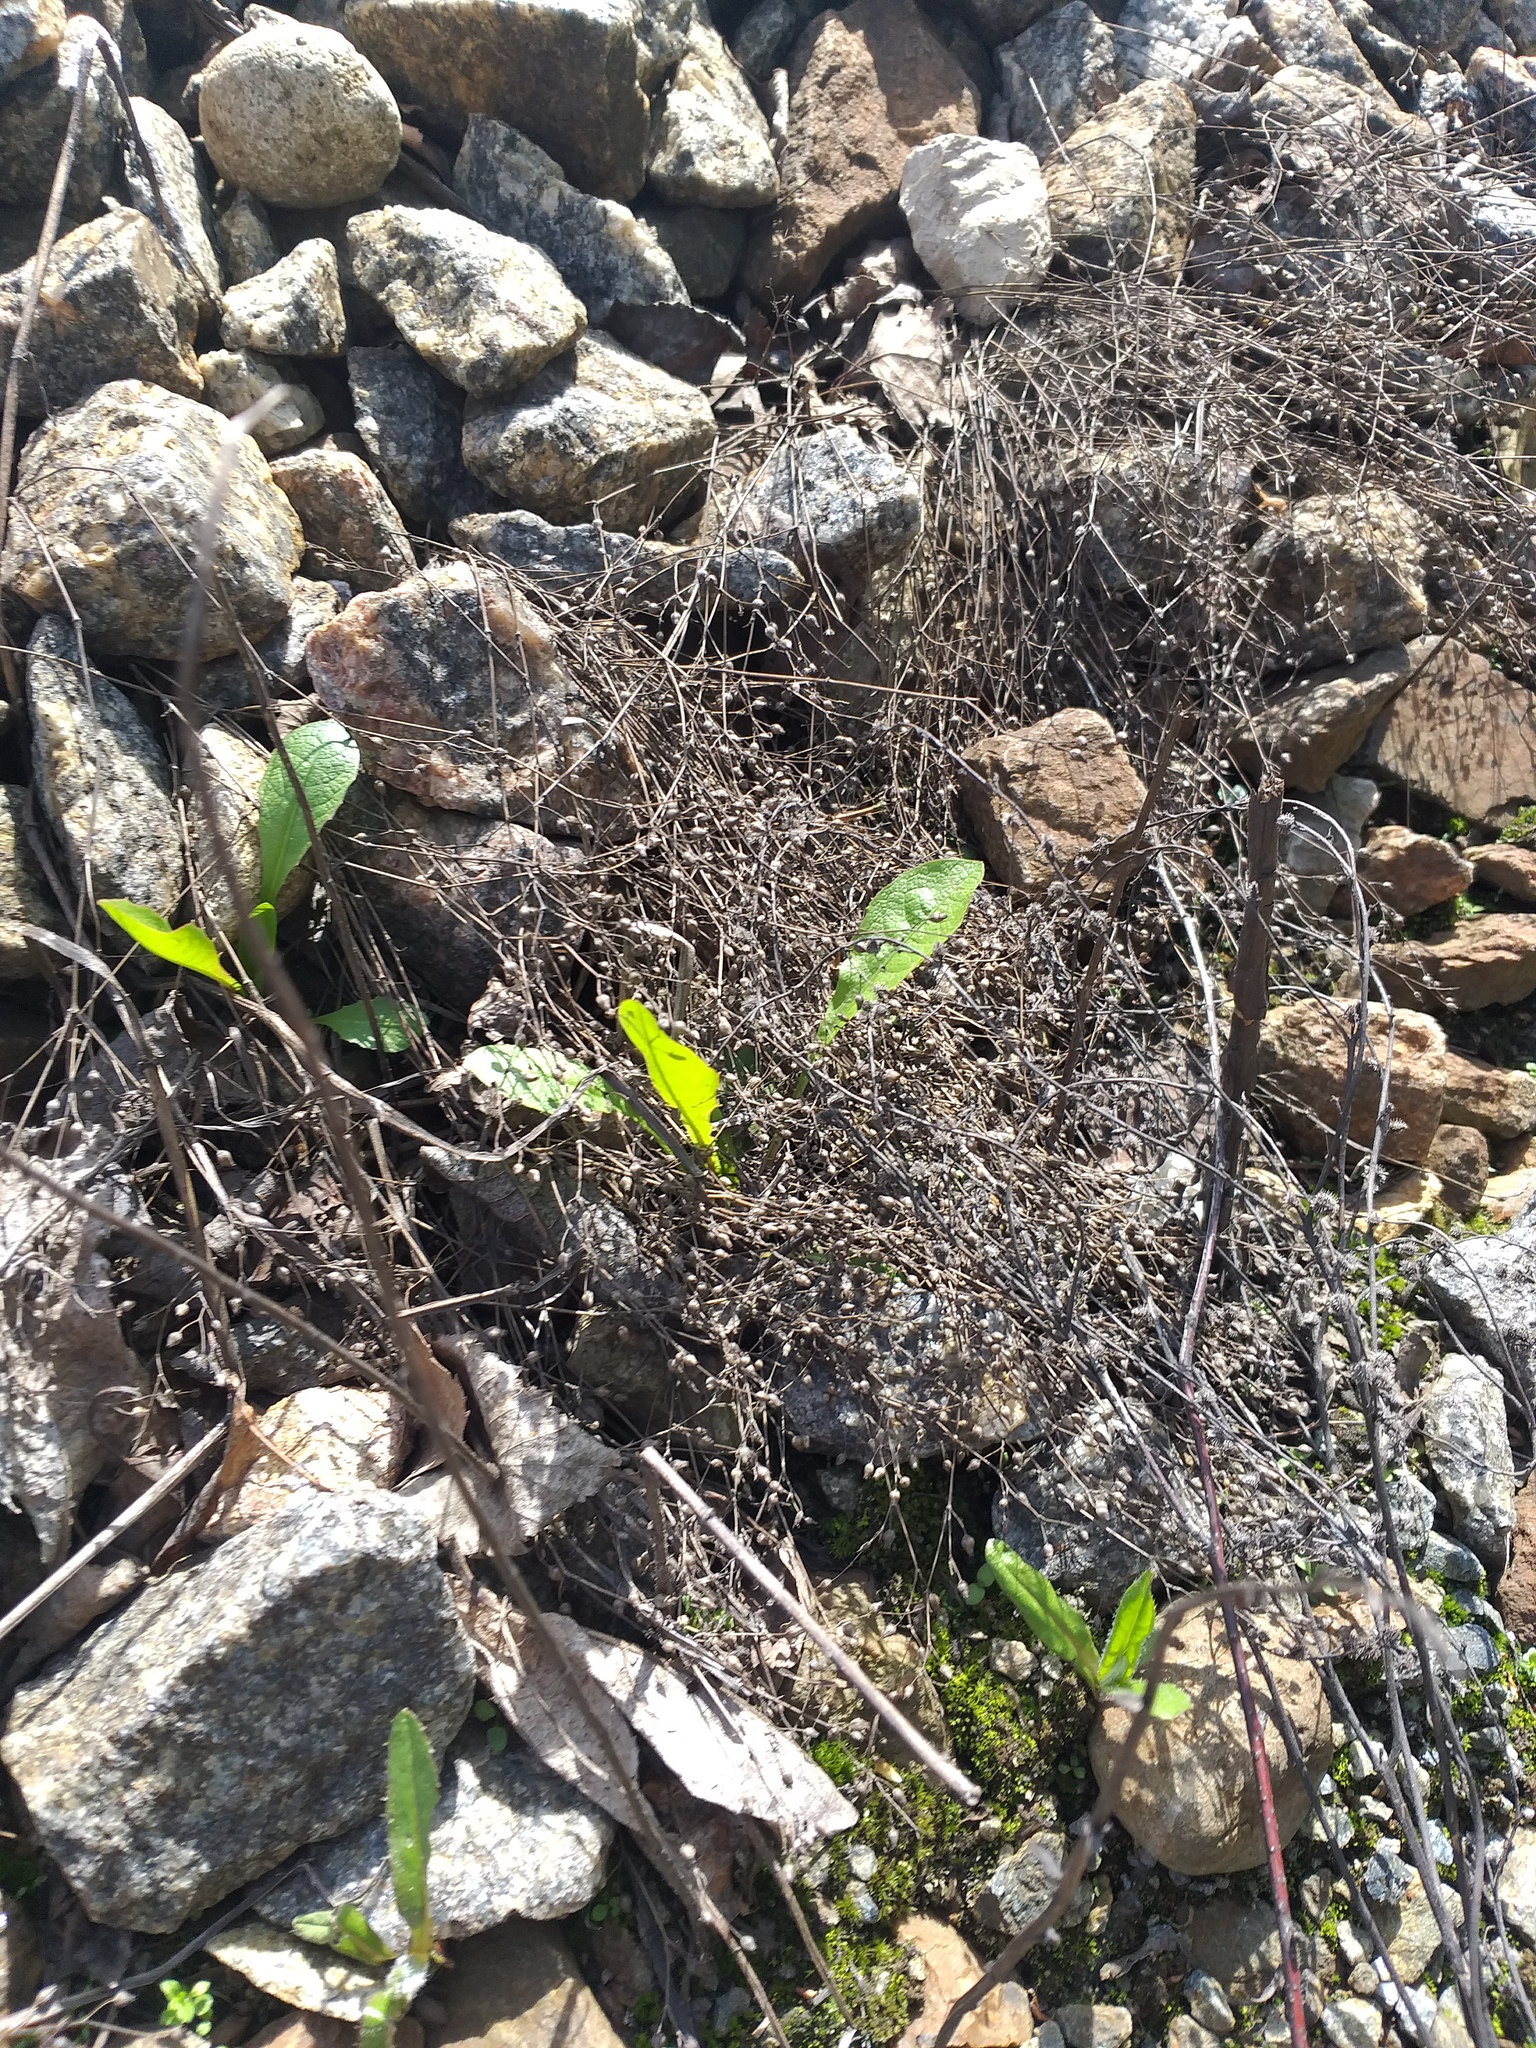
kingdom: Plantae
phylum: Tracheophyta
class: Magnoliopsida
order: Caryophyllales
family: Caryophyllaceae
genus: Arenaria
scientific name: Arenaria serpyllifolia
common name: Thyme-leaved sandwort
